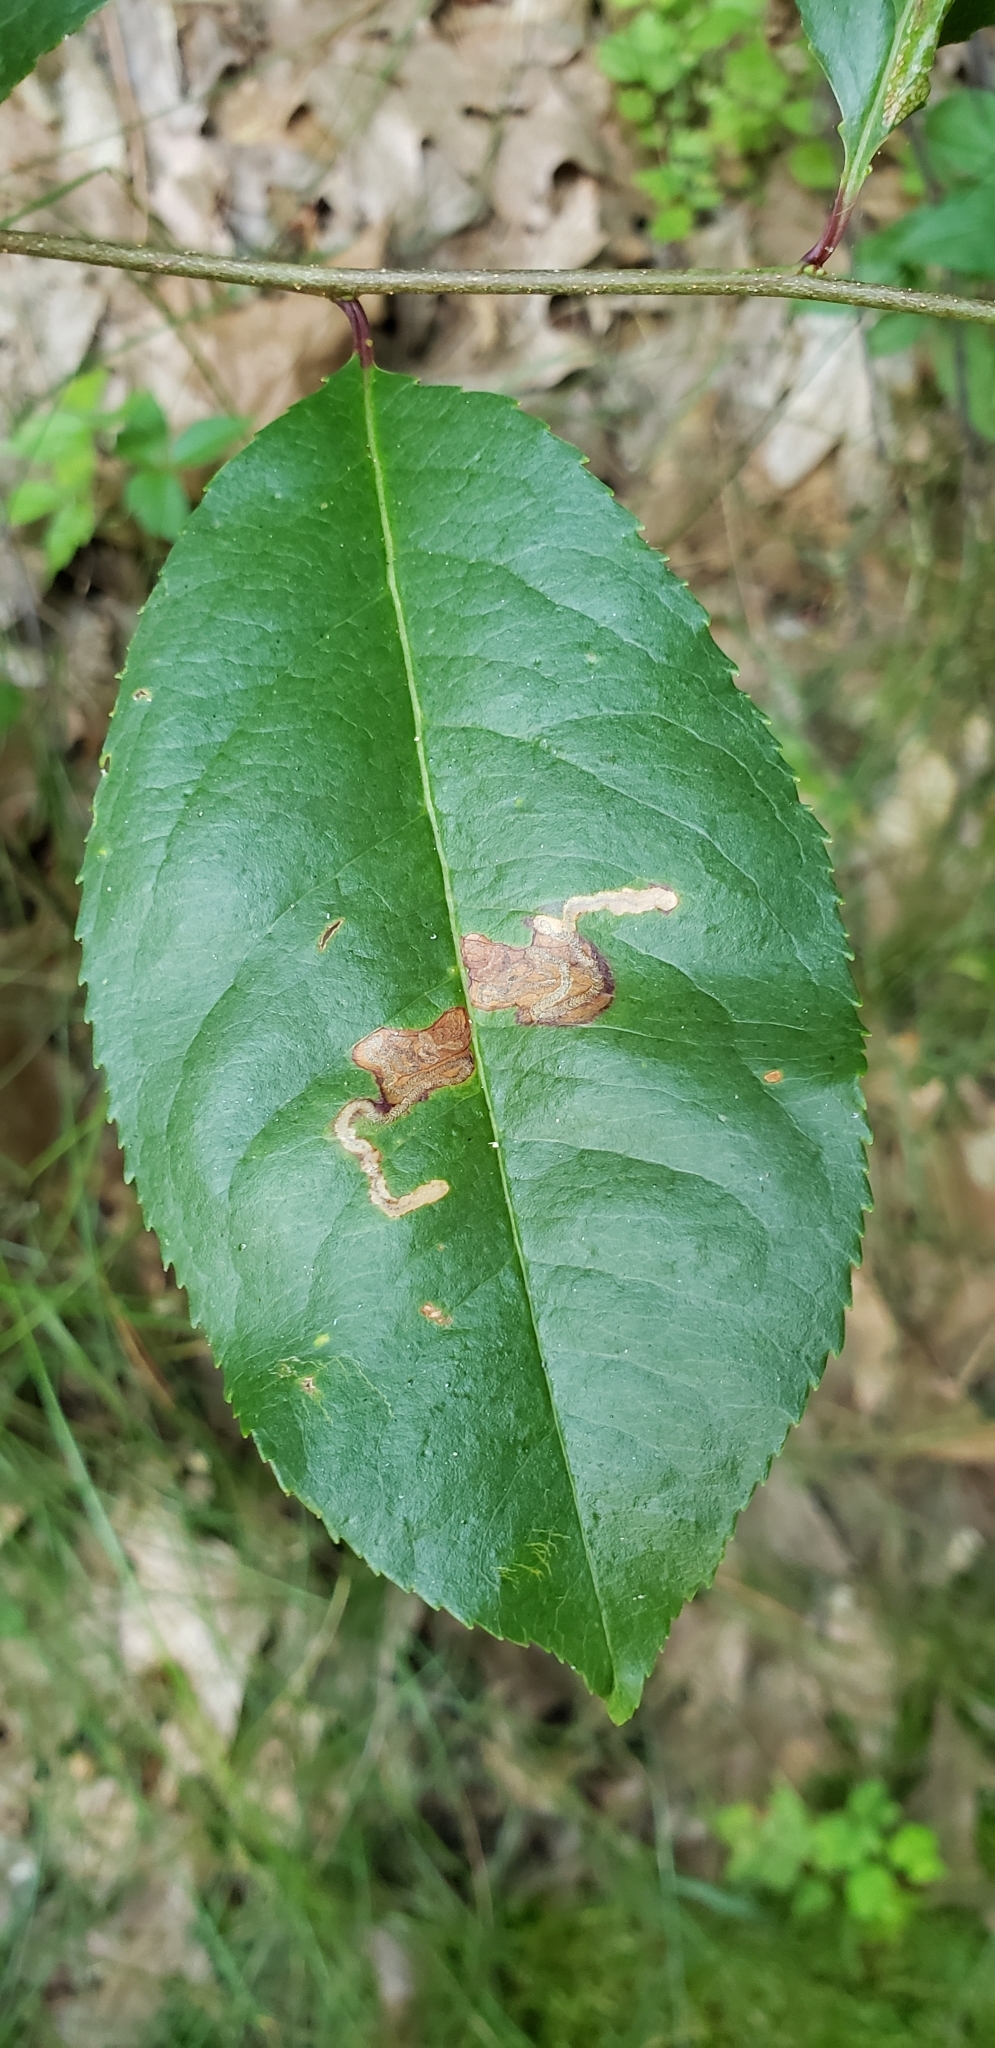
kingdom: Animalia
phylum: Arthropoda
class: Insecta
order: Lepidoptera
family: Nepticulidae
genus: Stigmella
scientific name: Stigmella prunifoliella
